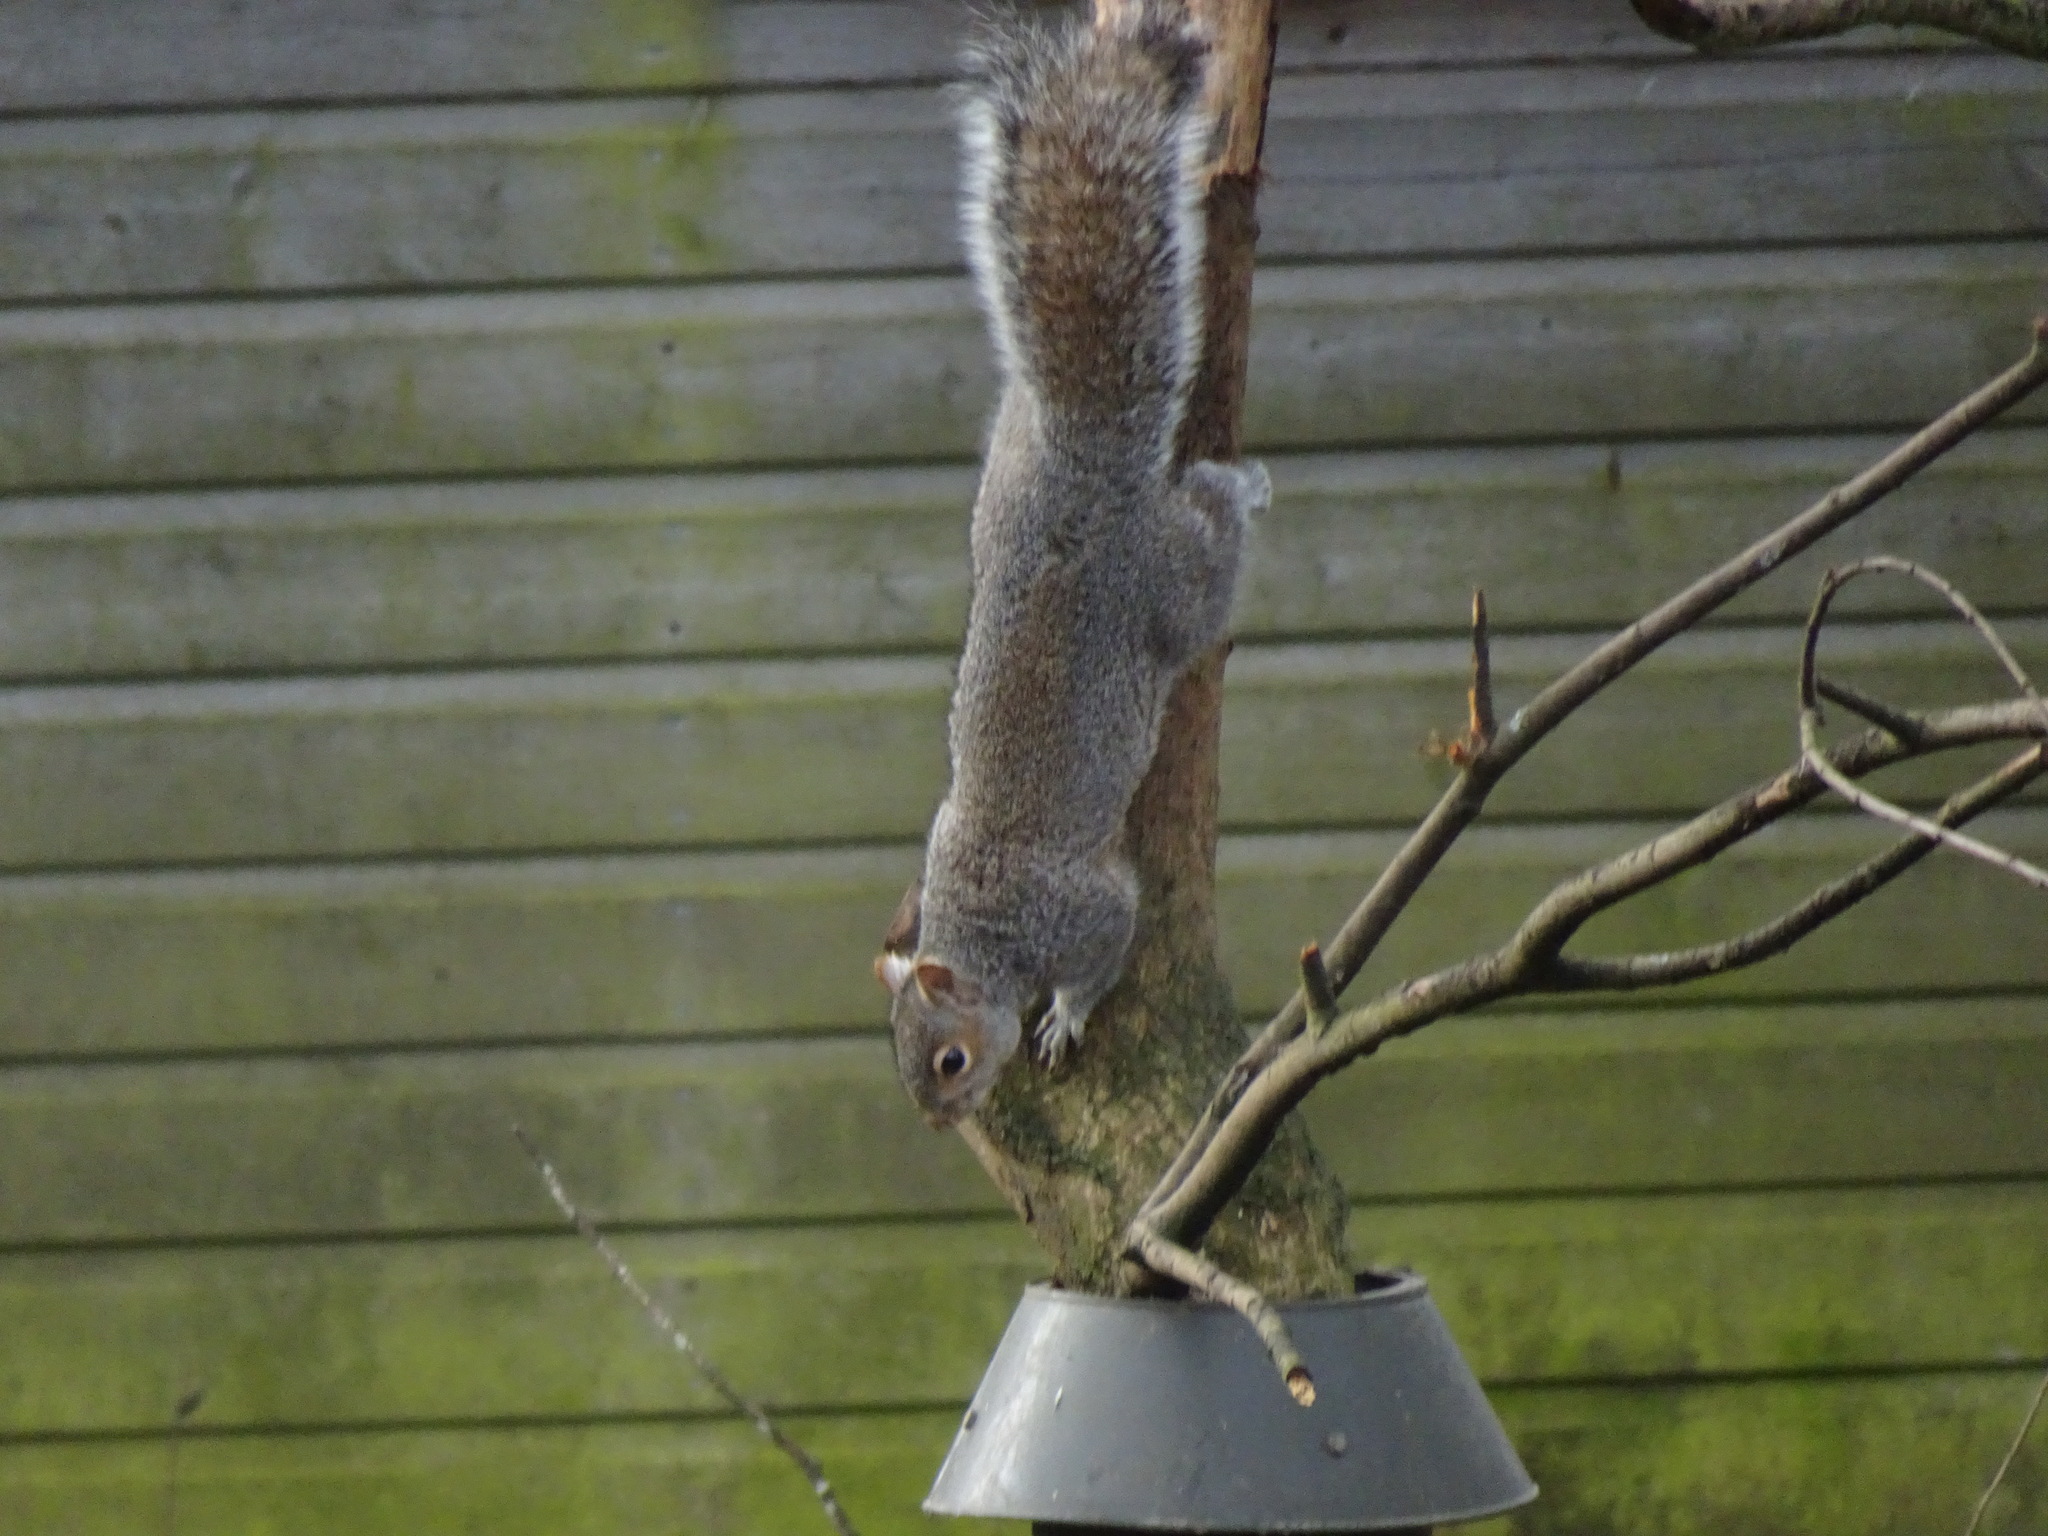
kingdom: Animalia
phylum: Chordata
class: Mammalia
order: Rodentia
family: Sciuridae
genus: Sciurus
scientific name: Sciurus carolinensis
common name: Eastern gray squirrel
